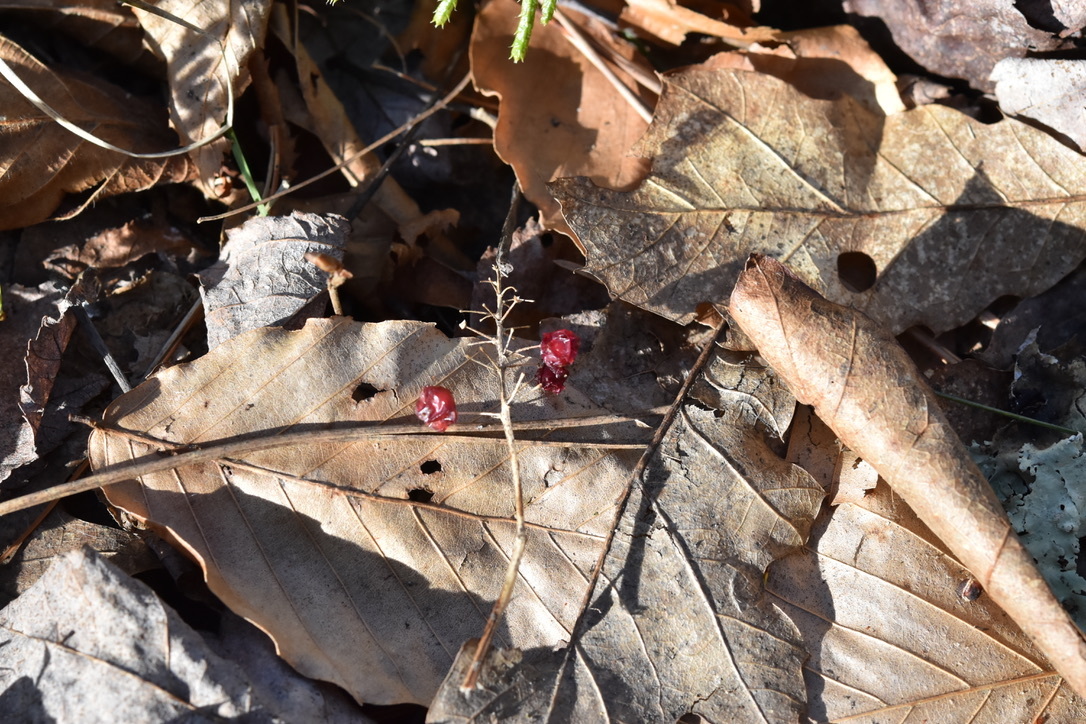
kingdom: Plantae
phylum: Tracheophyta
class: Liliopsida
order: Asparagales
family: Asparagaceae
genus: Maianthemum
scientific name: Maianthemum canadense
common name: False lily-of-the-valley
